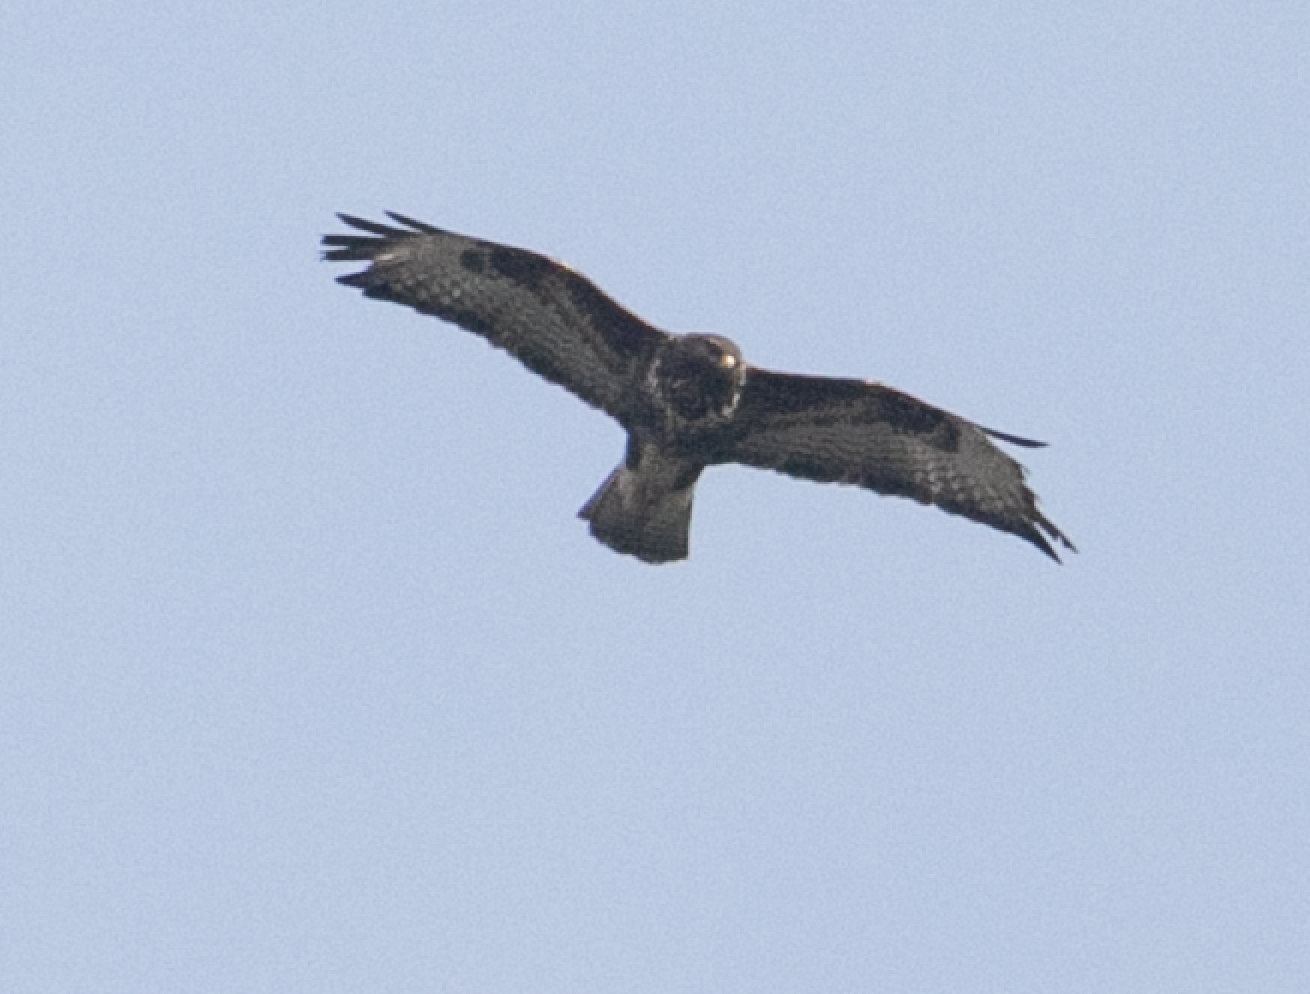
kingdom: Animalia
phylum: Chordata
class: Aves
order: Accipitriformes
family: Accipitridae
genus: Buteo
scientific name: Buteo buteo
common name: Common buzzard
